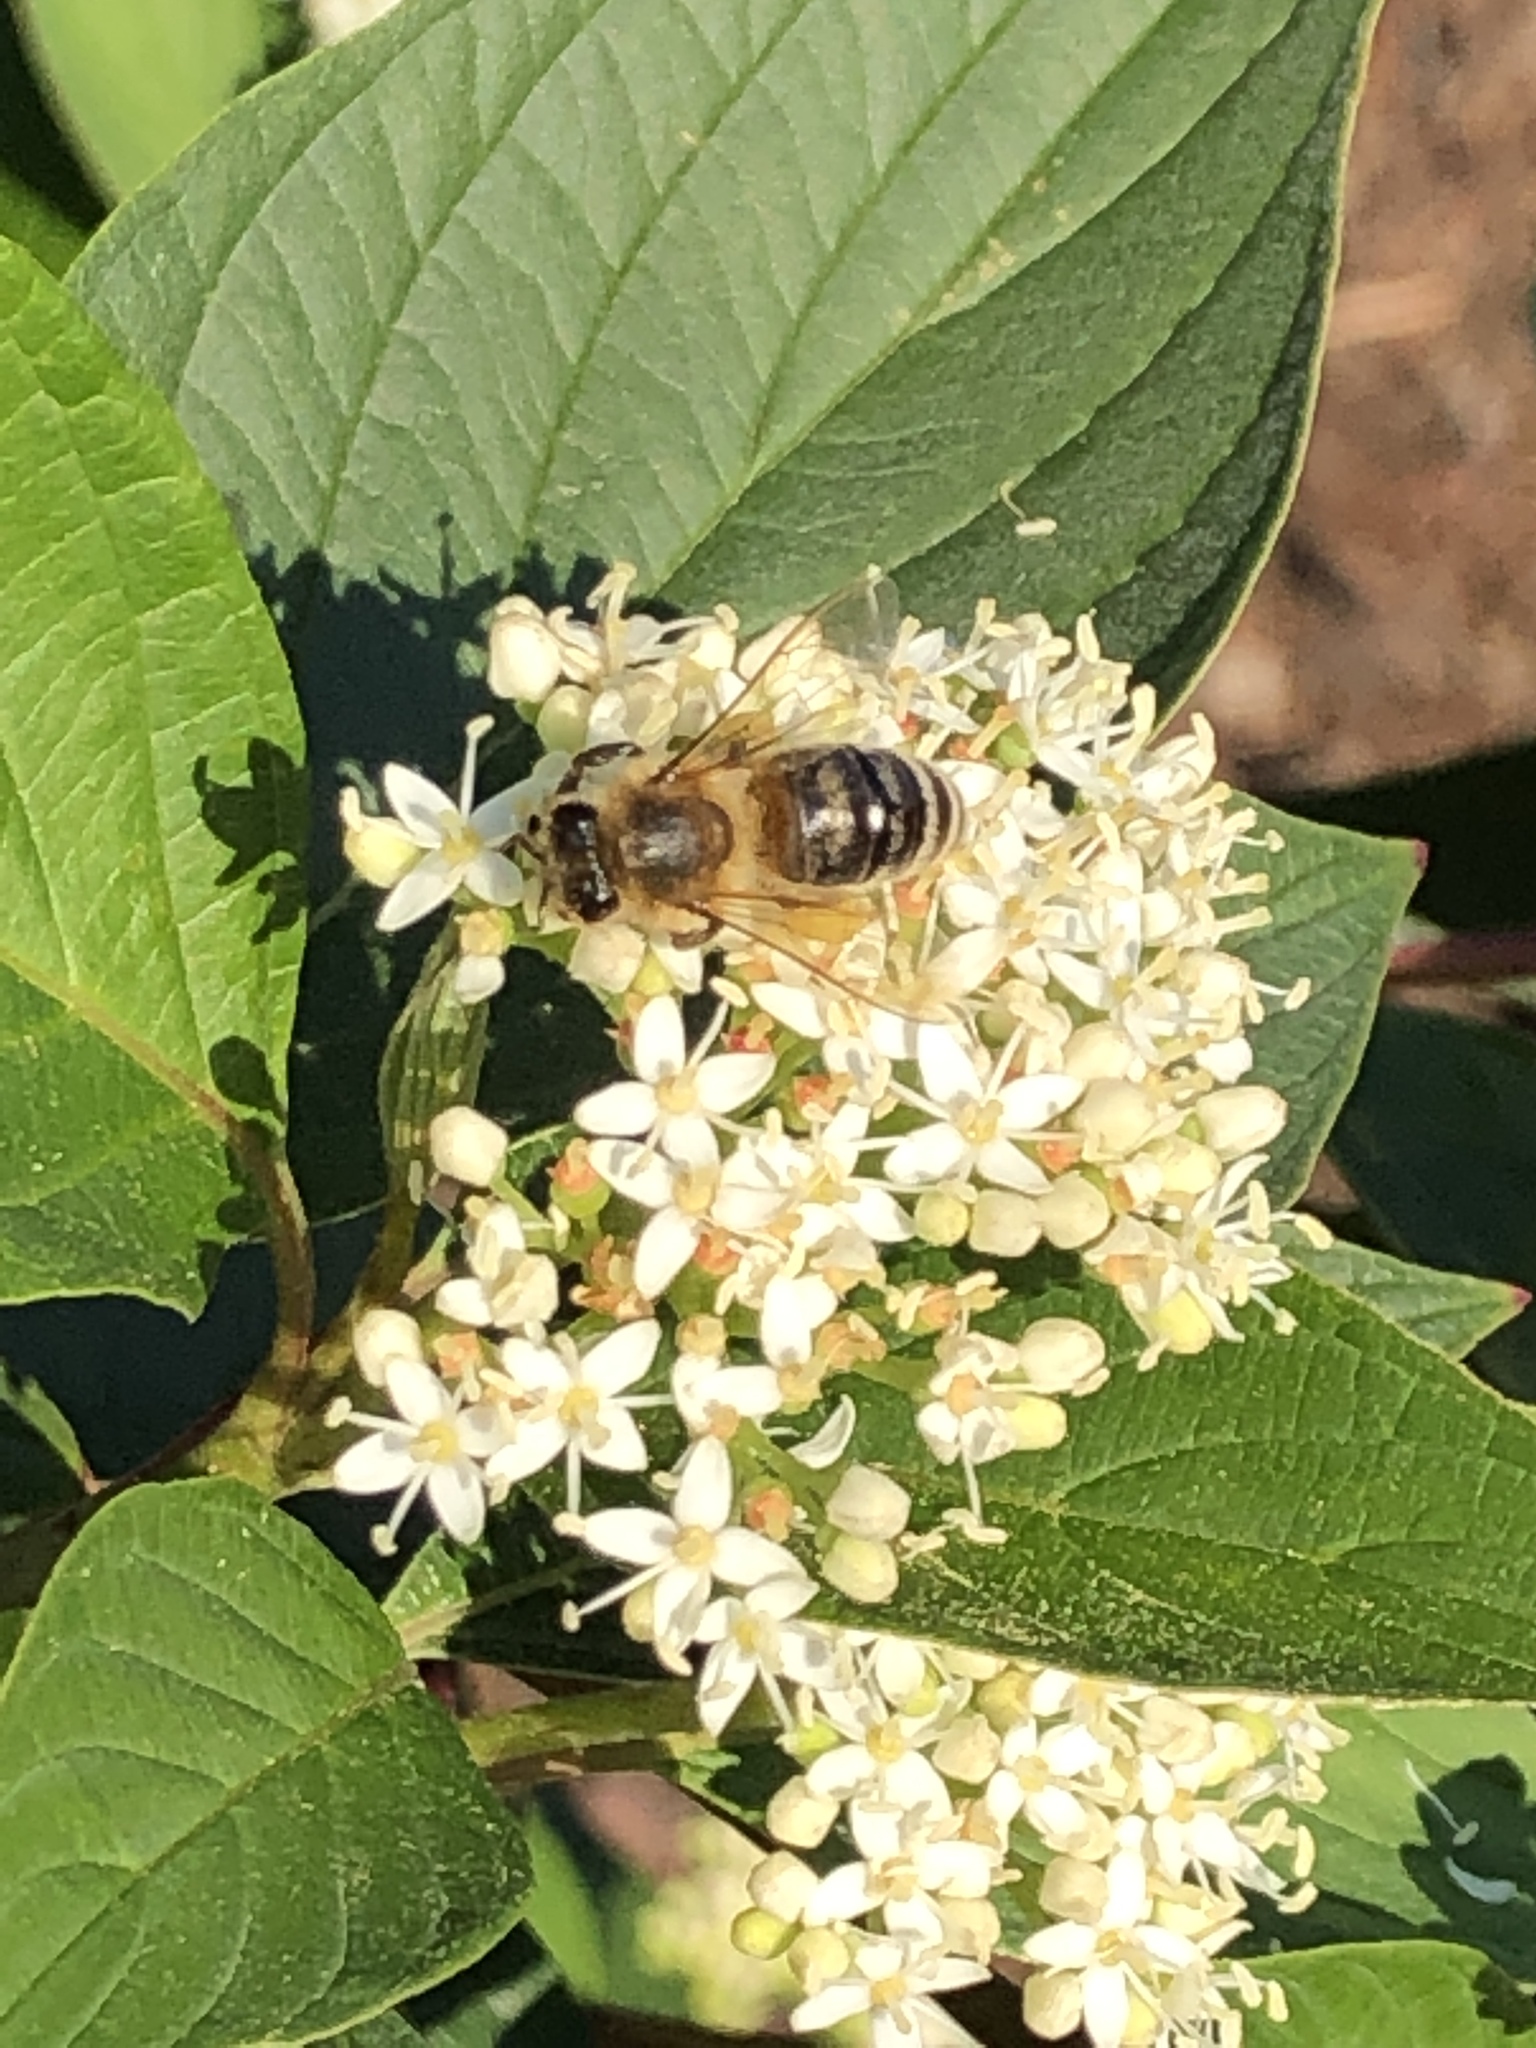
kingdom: Animalia
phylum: Arthropoda
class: Insecta
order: Hymenoptera
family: Apidae
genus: Apis
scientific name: Apis mellifera
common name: Honey bee
